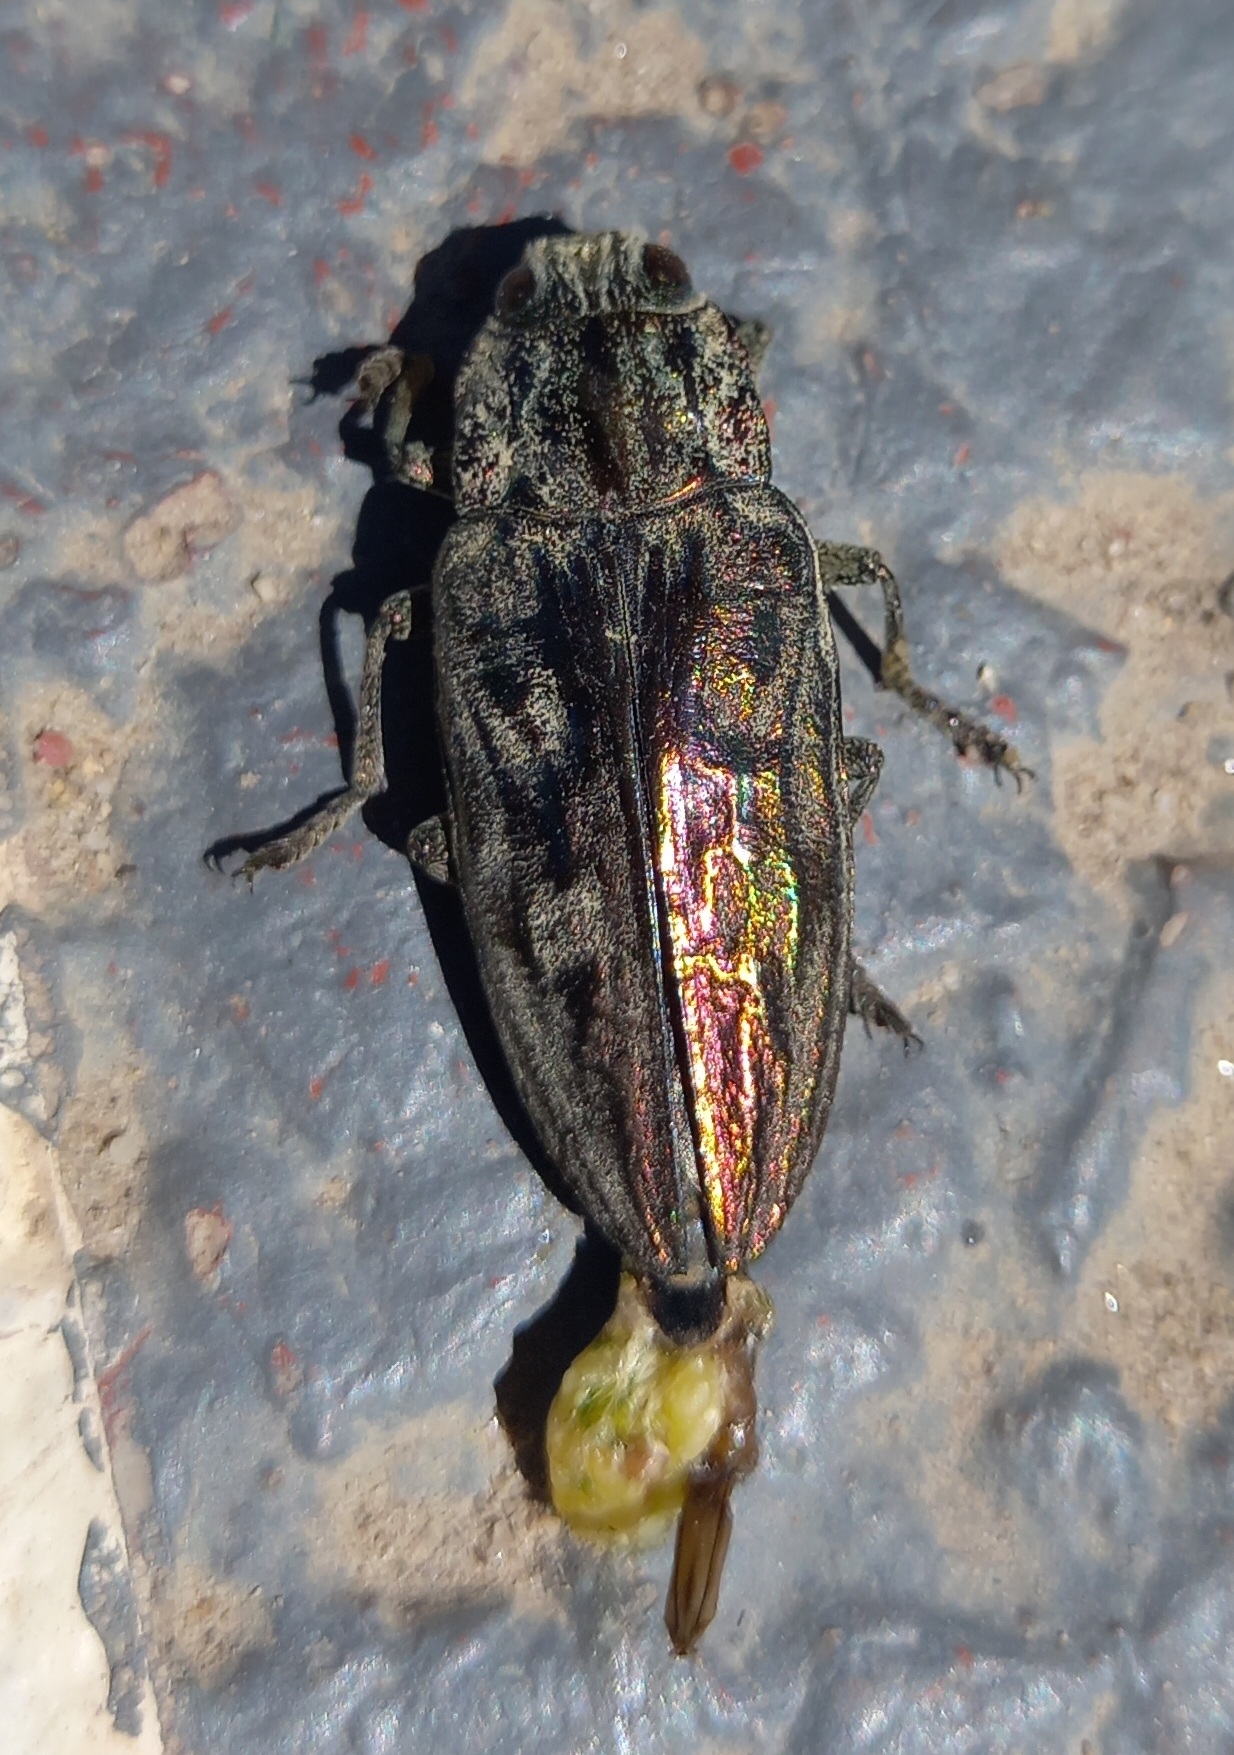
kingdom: Animalia
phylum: Arthropoda
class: Insecta
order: Coleoptera
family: Buprestidae
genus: Chalcophora
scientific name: Chalcophora massiliensis
